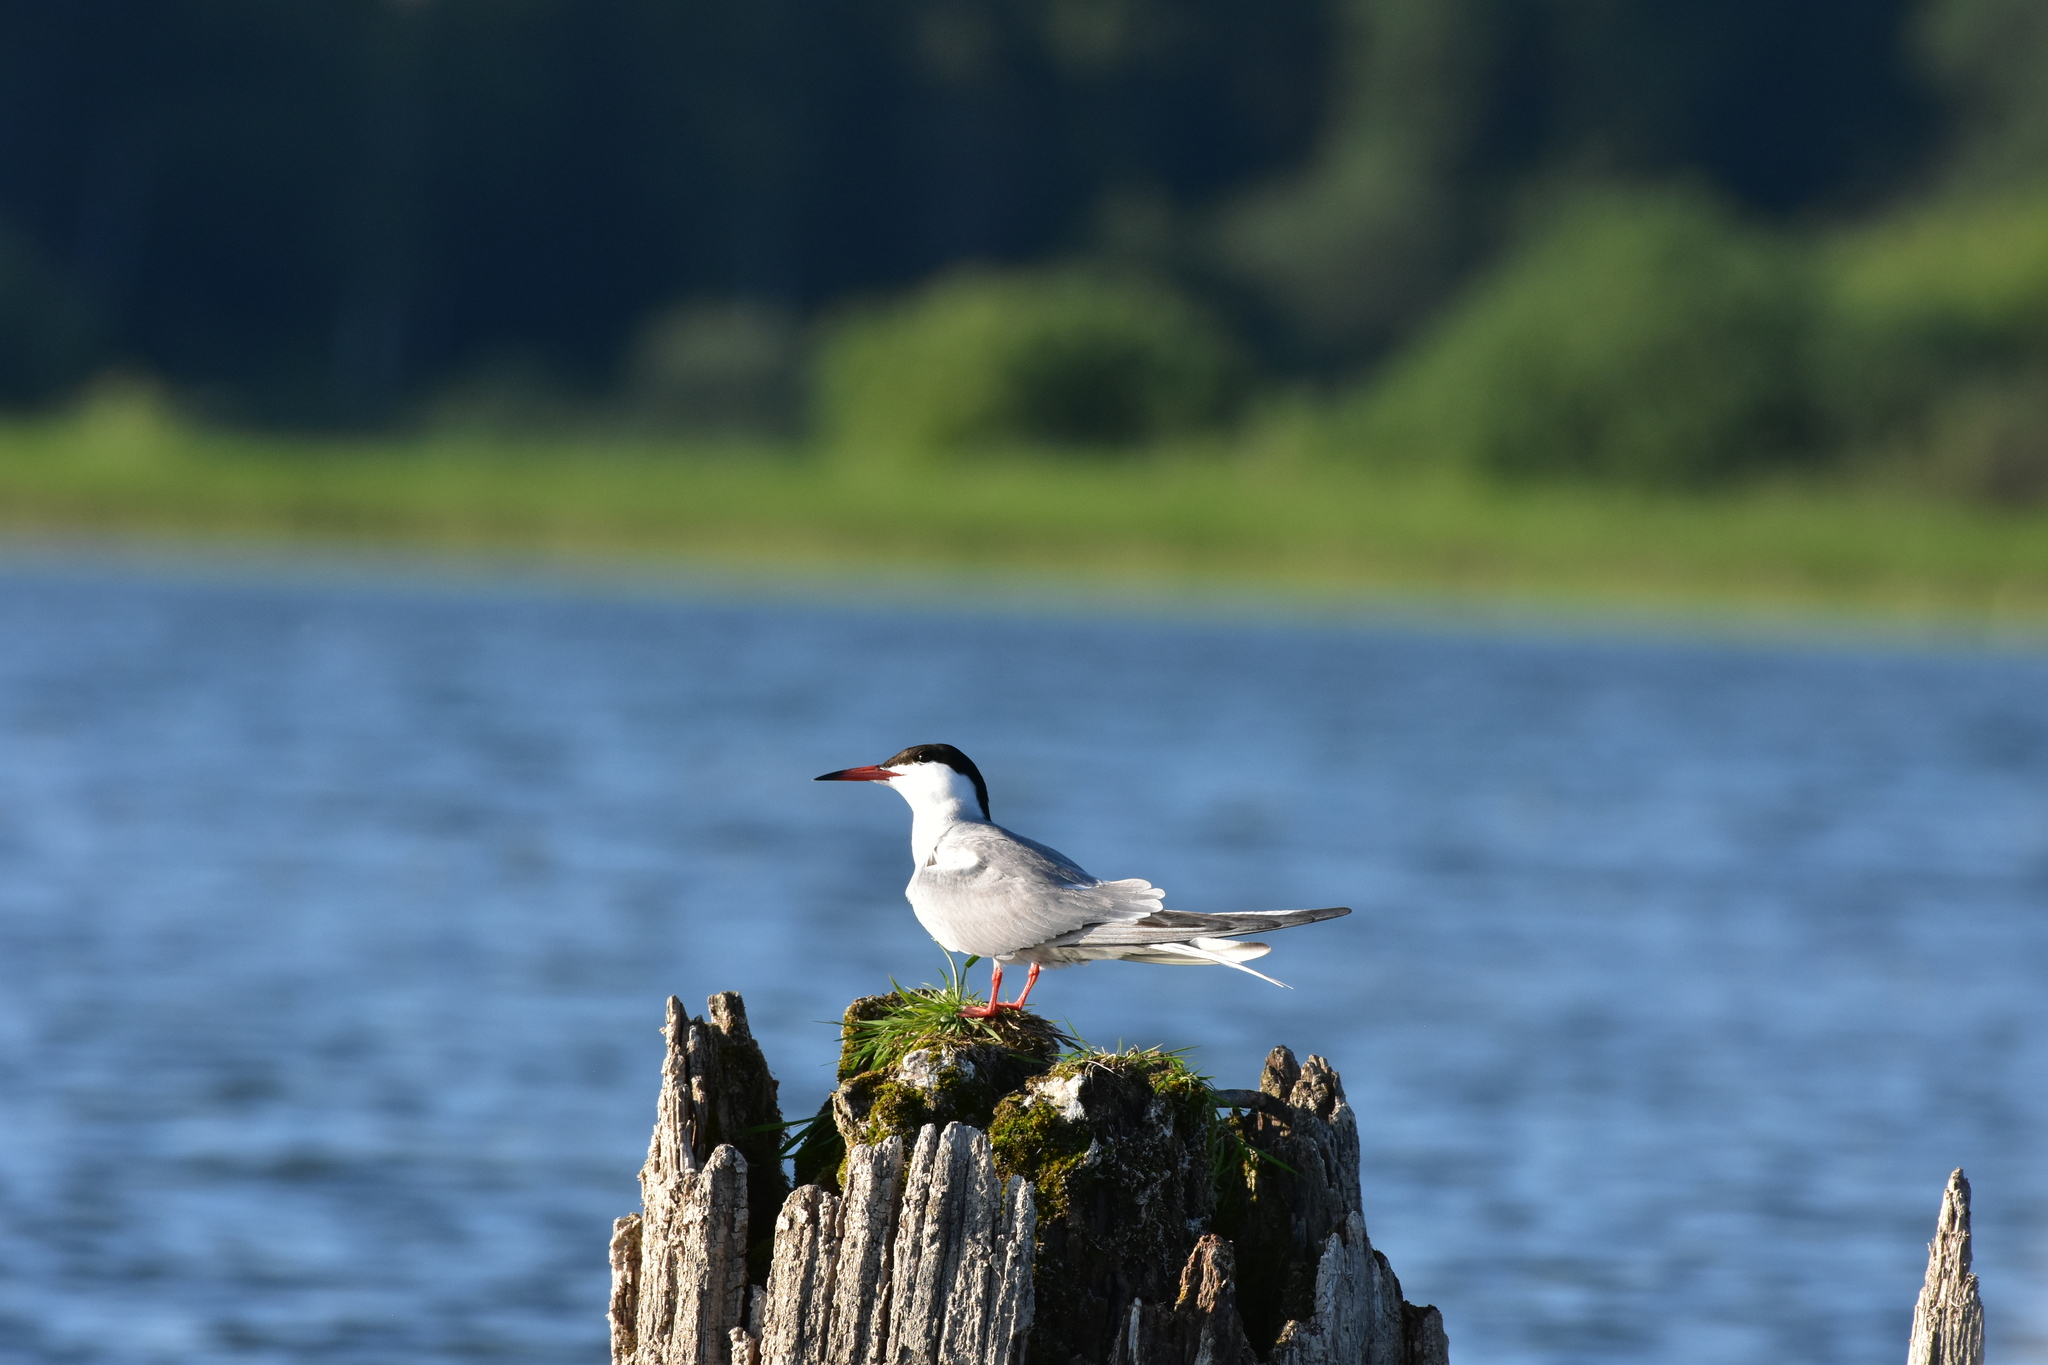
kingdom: Animalia
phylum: Chordata
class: Aves
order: Charadriiformes
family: Laridae
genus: Sterna
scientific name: Sterna hirundo
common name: Common tern
